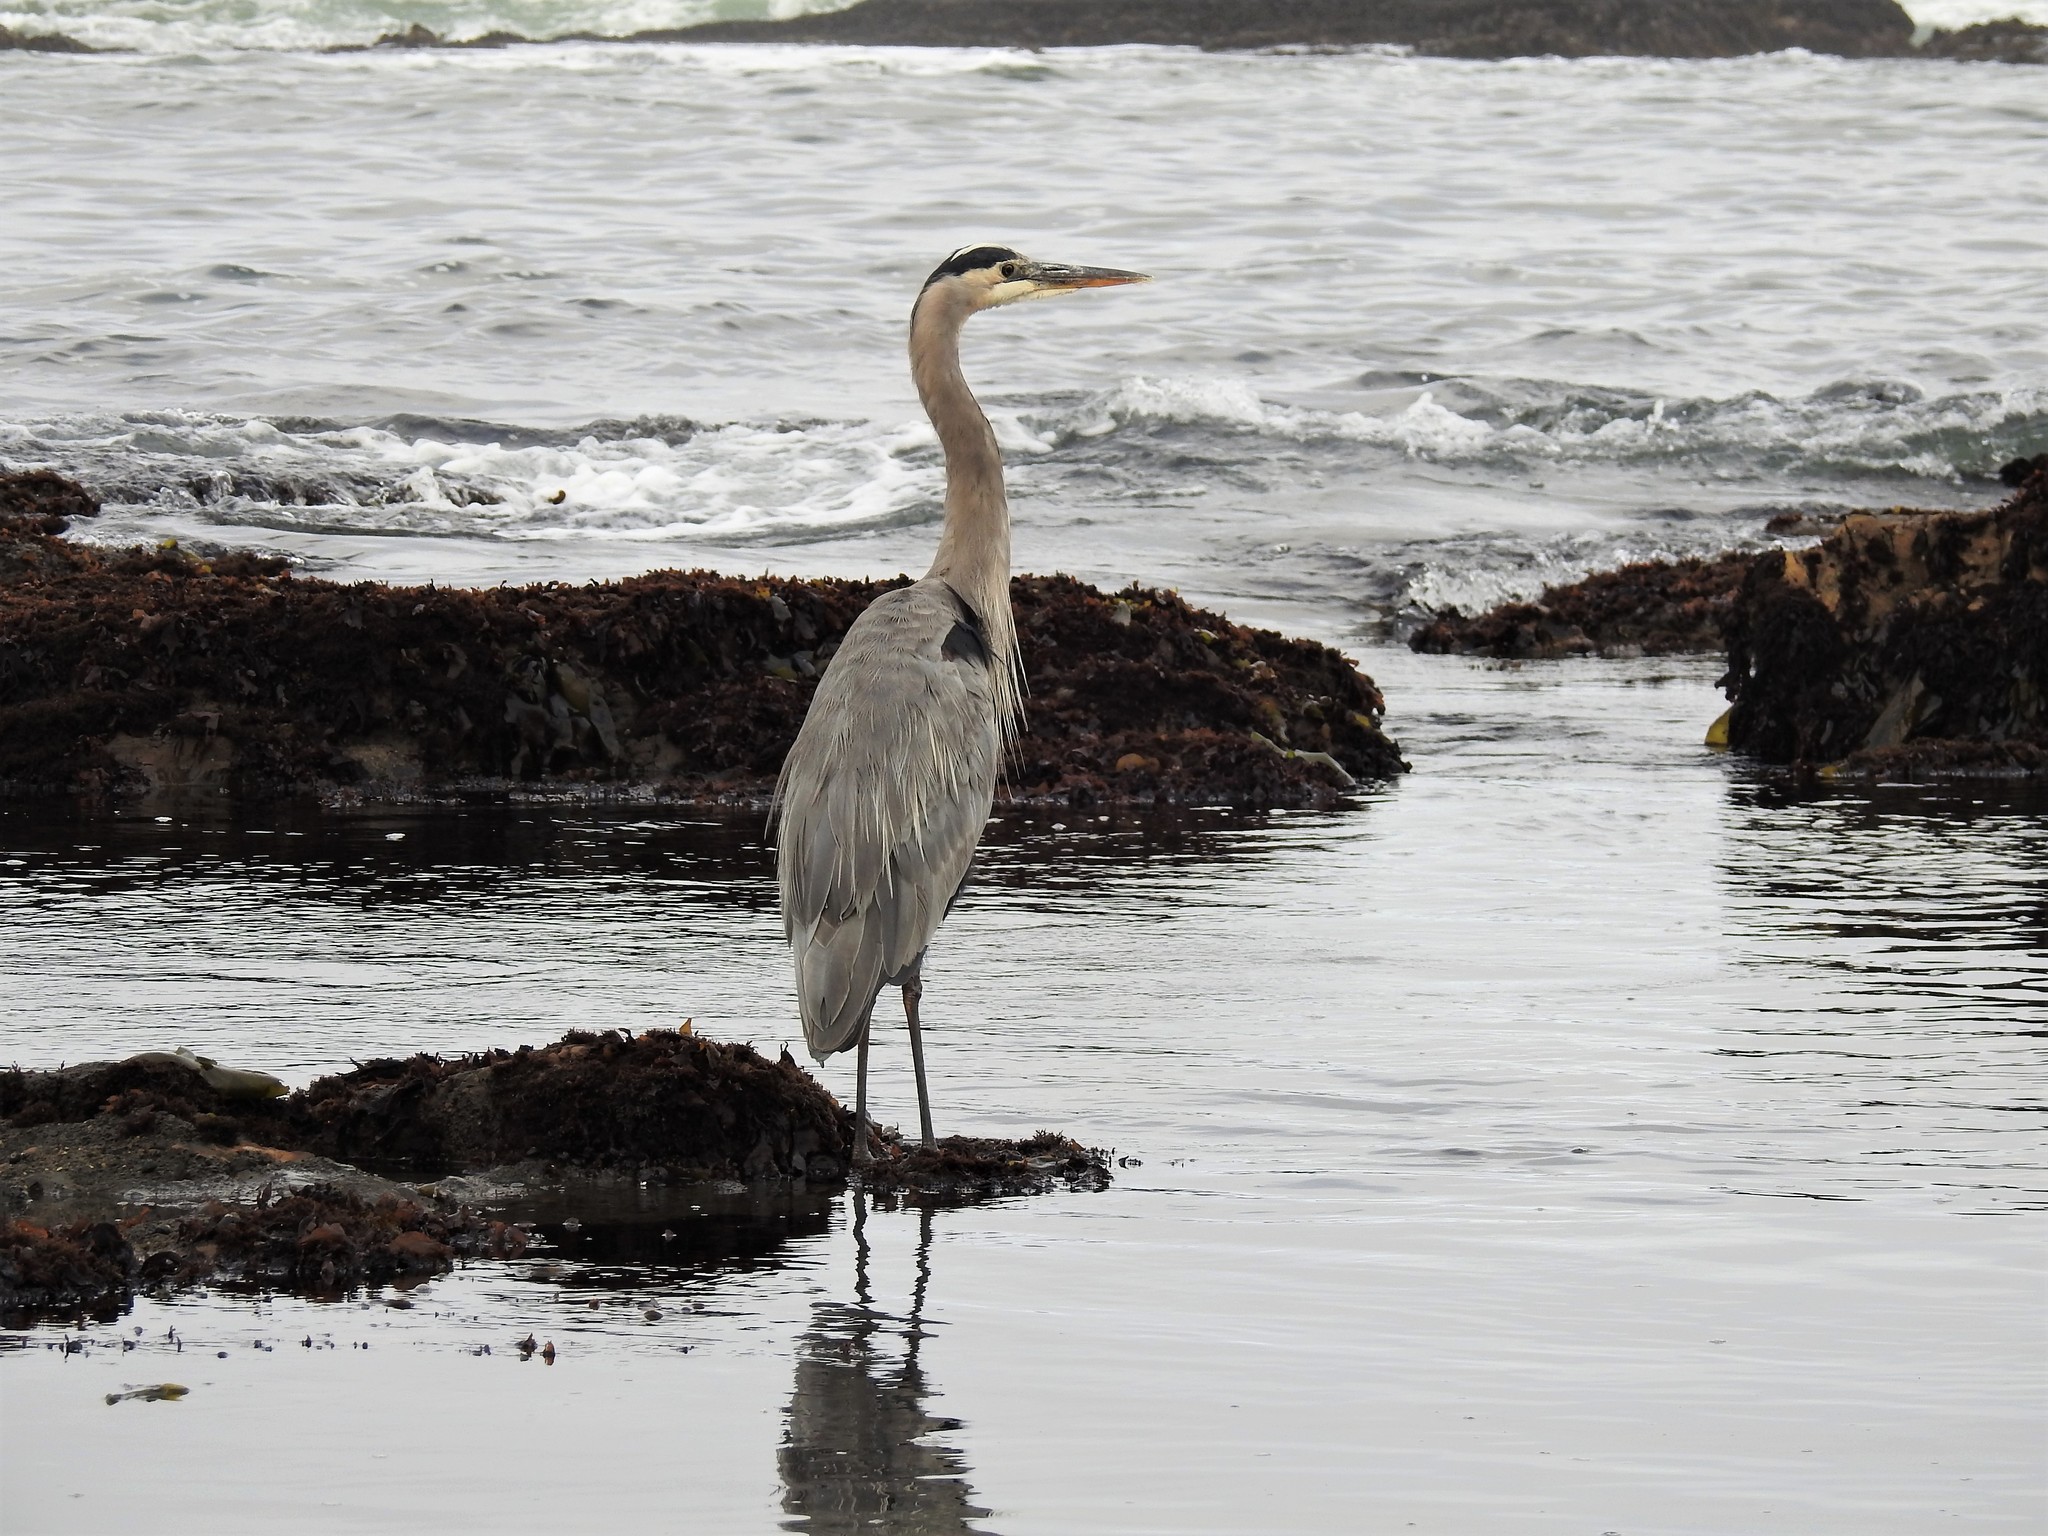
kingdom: Animalia
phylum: Chordata
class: Aves
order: Pelecaniformes
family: Ardeidae
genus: Ardea
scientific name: Ardea herodias
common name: Great blue heron
